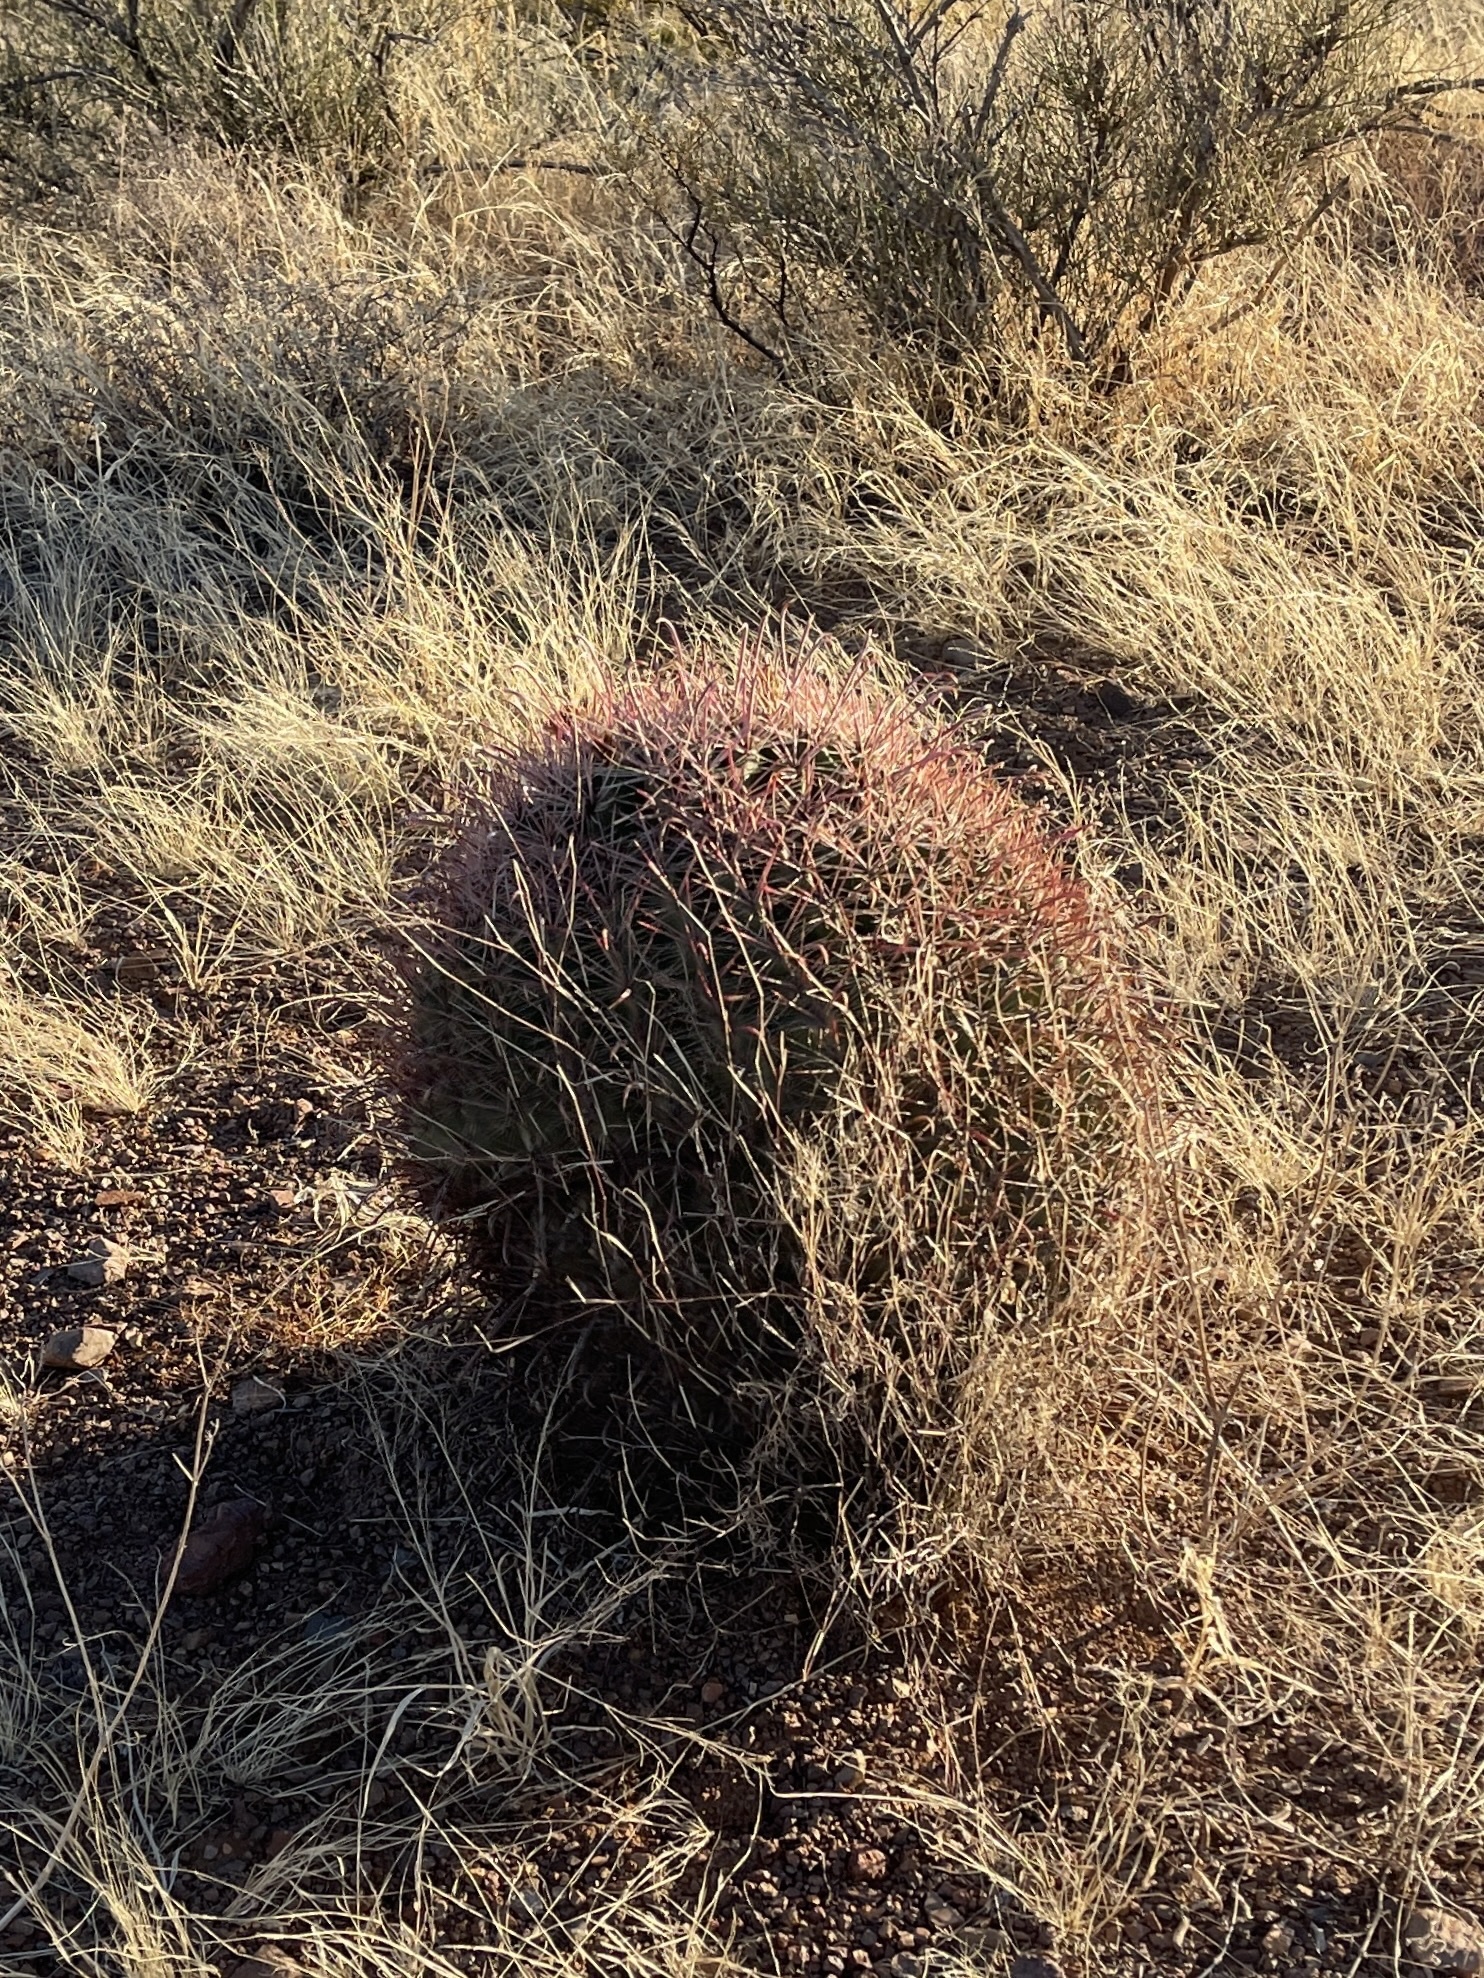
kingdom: Plantae
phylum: Tracheophyta
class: Magnoliopsida
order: Caryophyllales
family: Cactaceae
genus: Ferocactus
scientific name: Ferocactus wislizeni
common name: Candy barrel cactus
